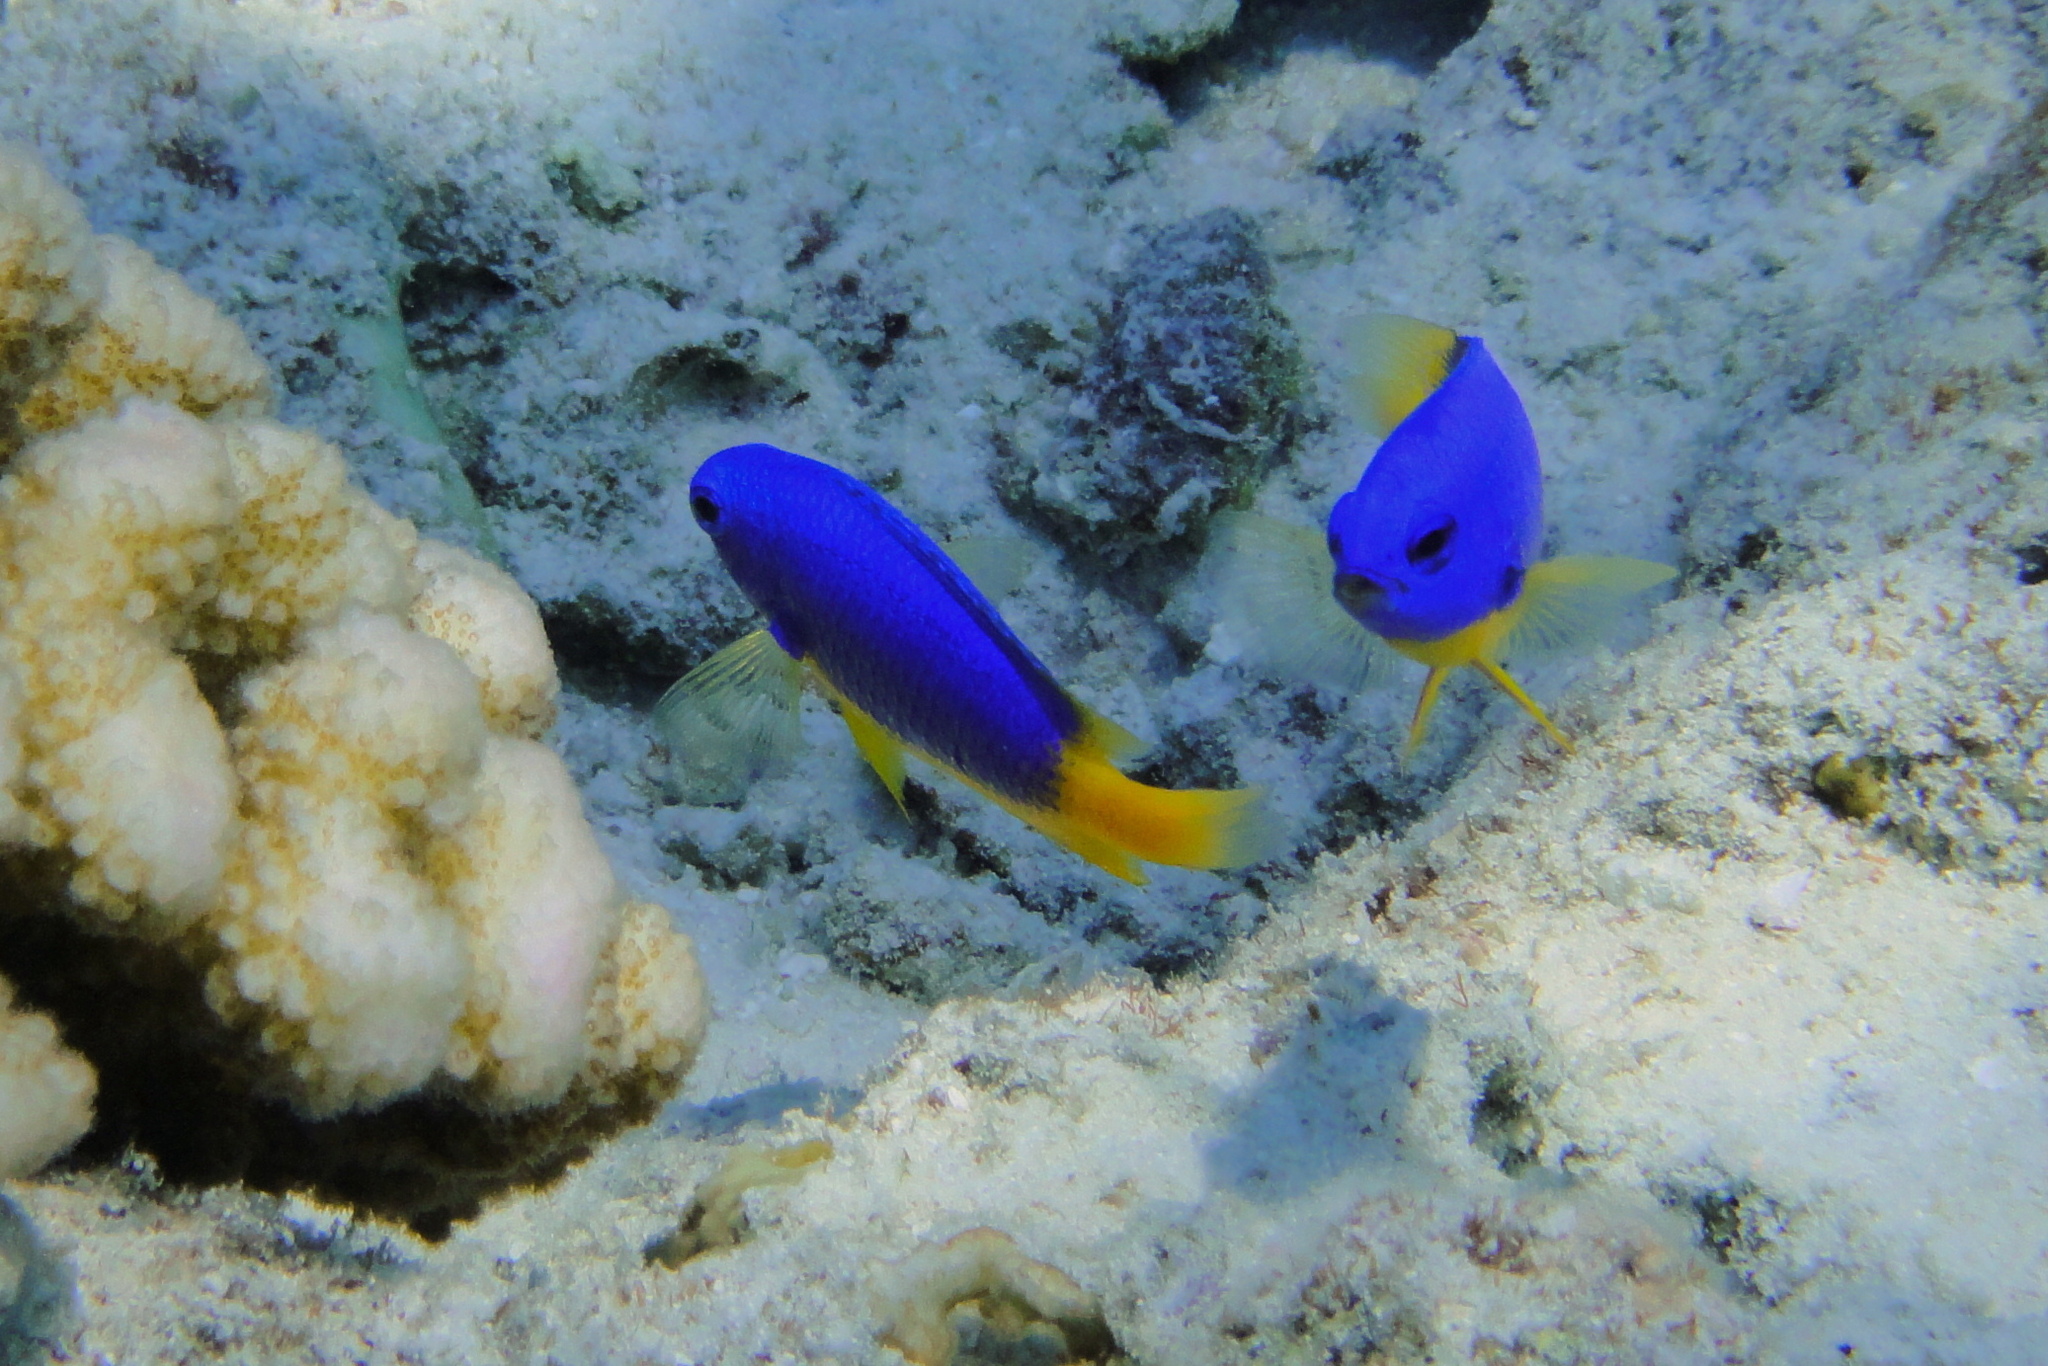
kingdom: Animalia
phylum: Chordata
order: Perciformes
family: Pomacentridae
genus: Pomacentrus
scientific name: Pomacentrus caeruleus
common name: Caerulean damsel
